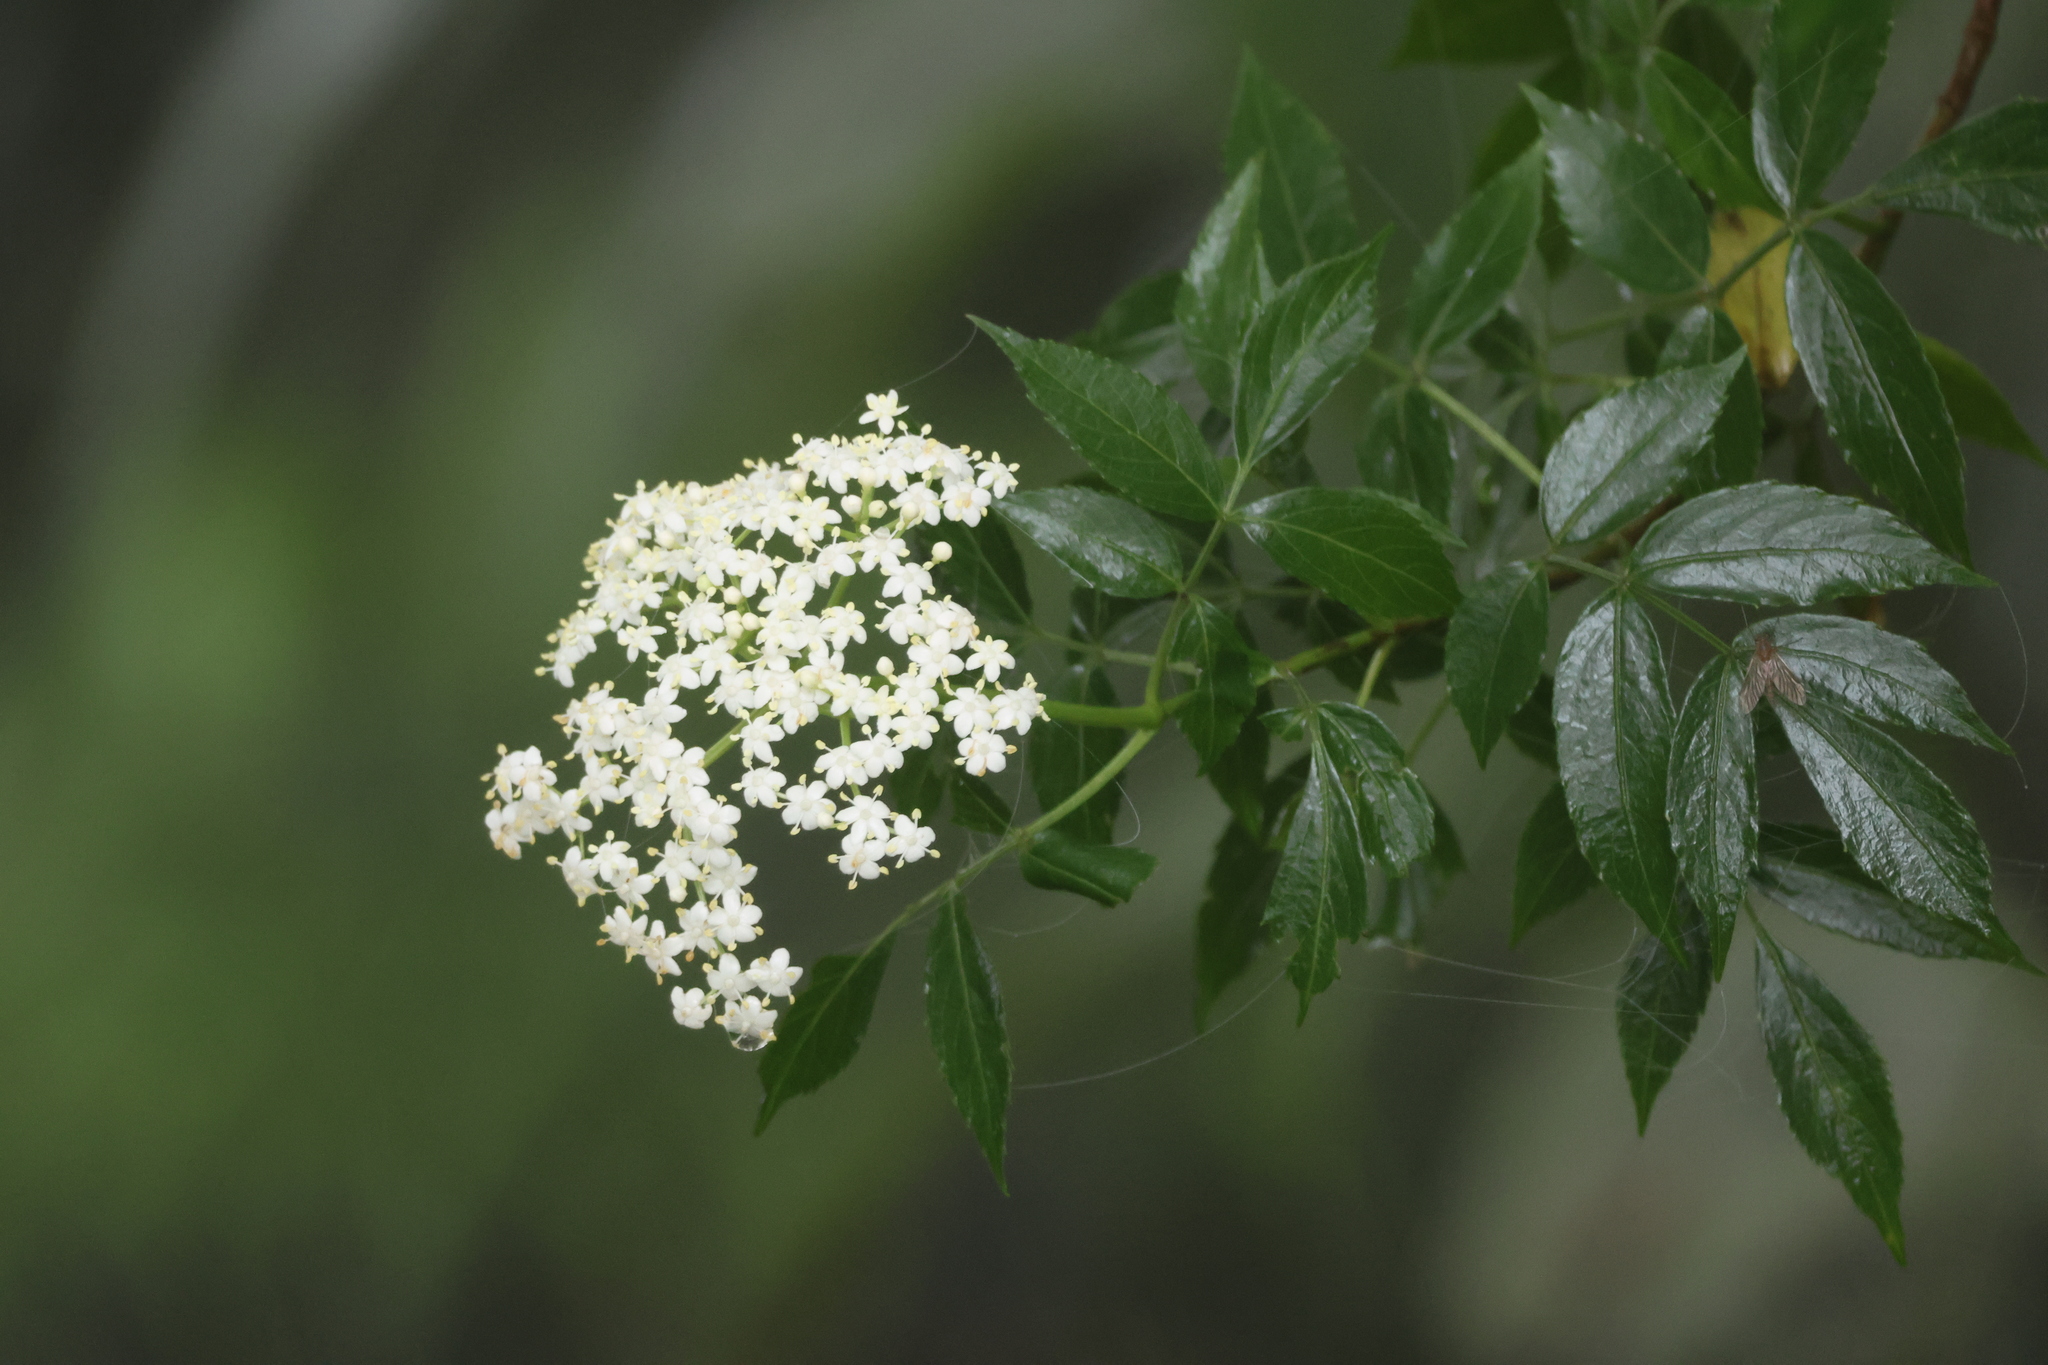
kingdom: Plantae
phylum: Tracheophyta
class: Magnoliopsida
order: Dipsacales
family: Viburnaceae
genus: Sambucus
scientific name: Sambucus canadensis
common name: American elder
